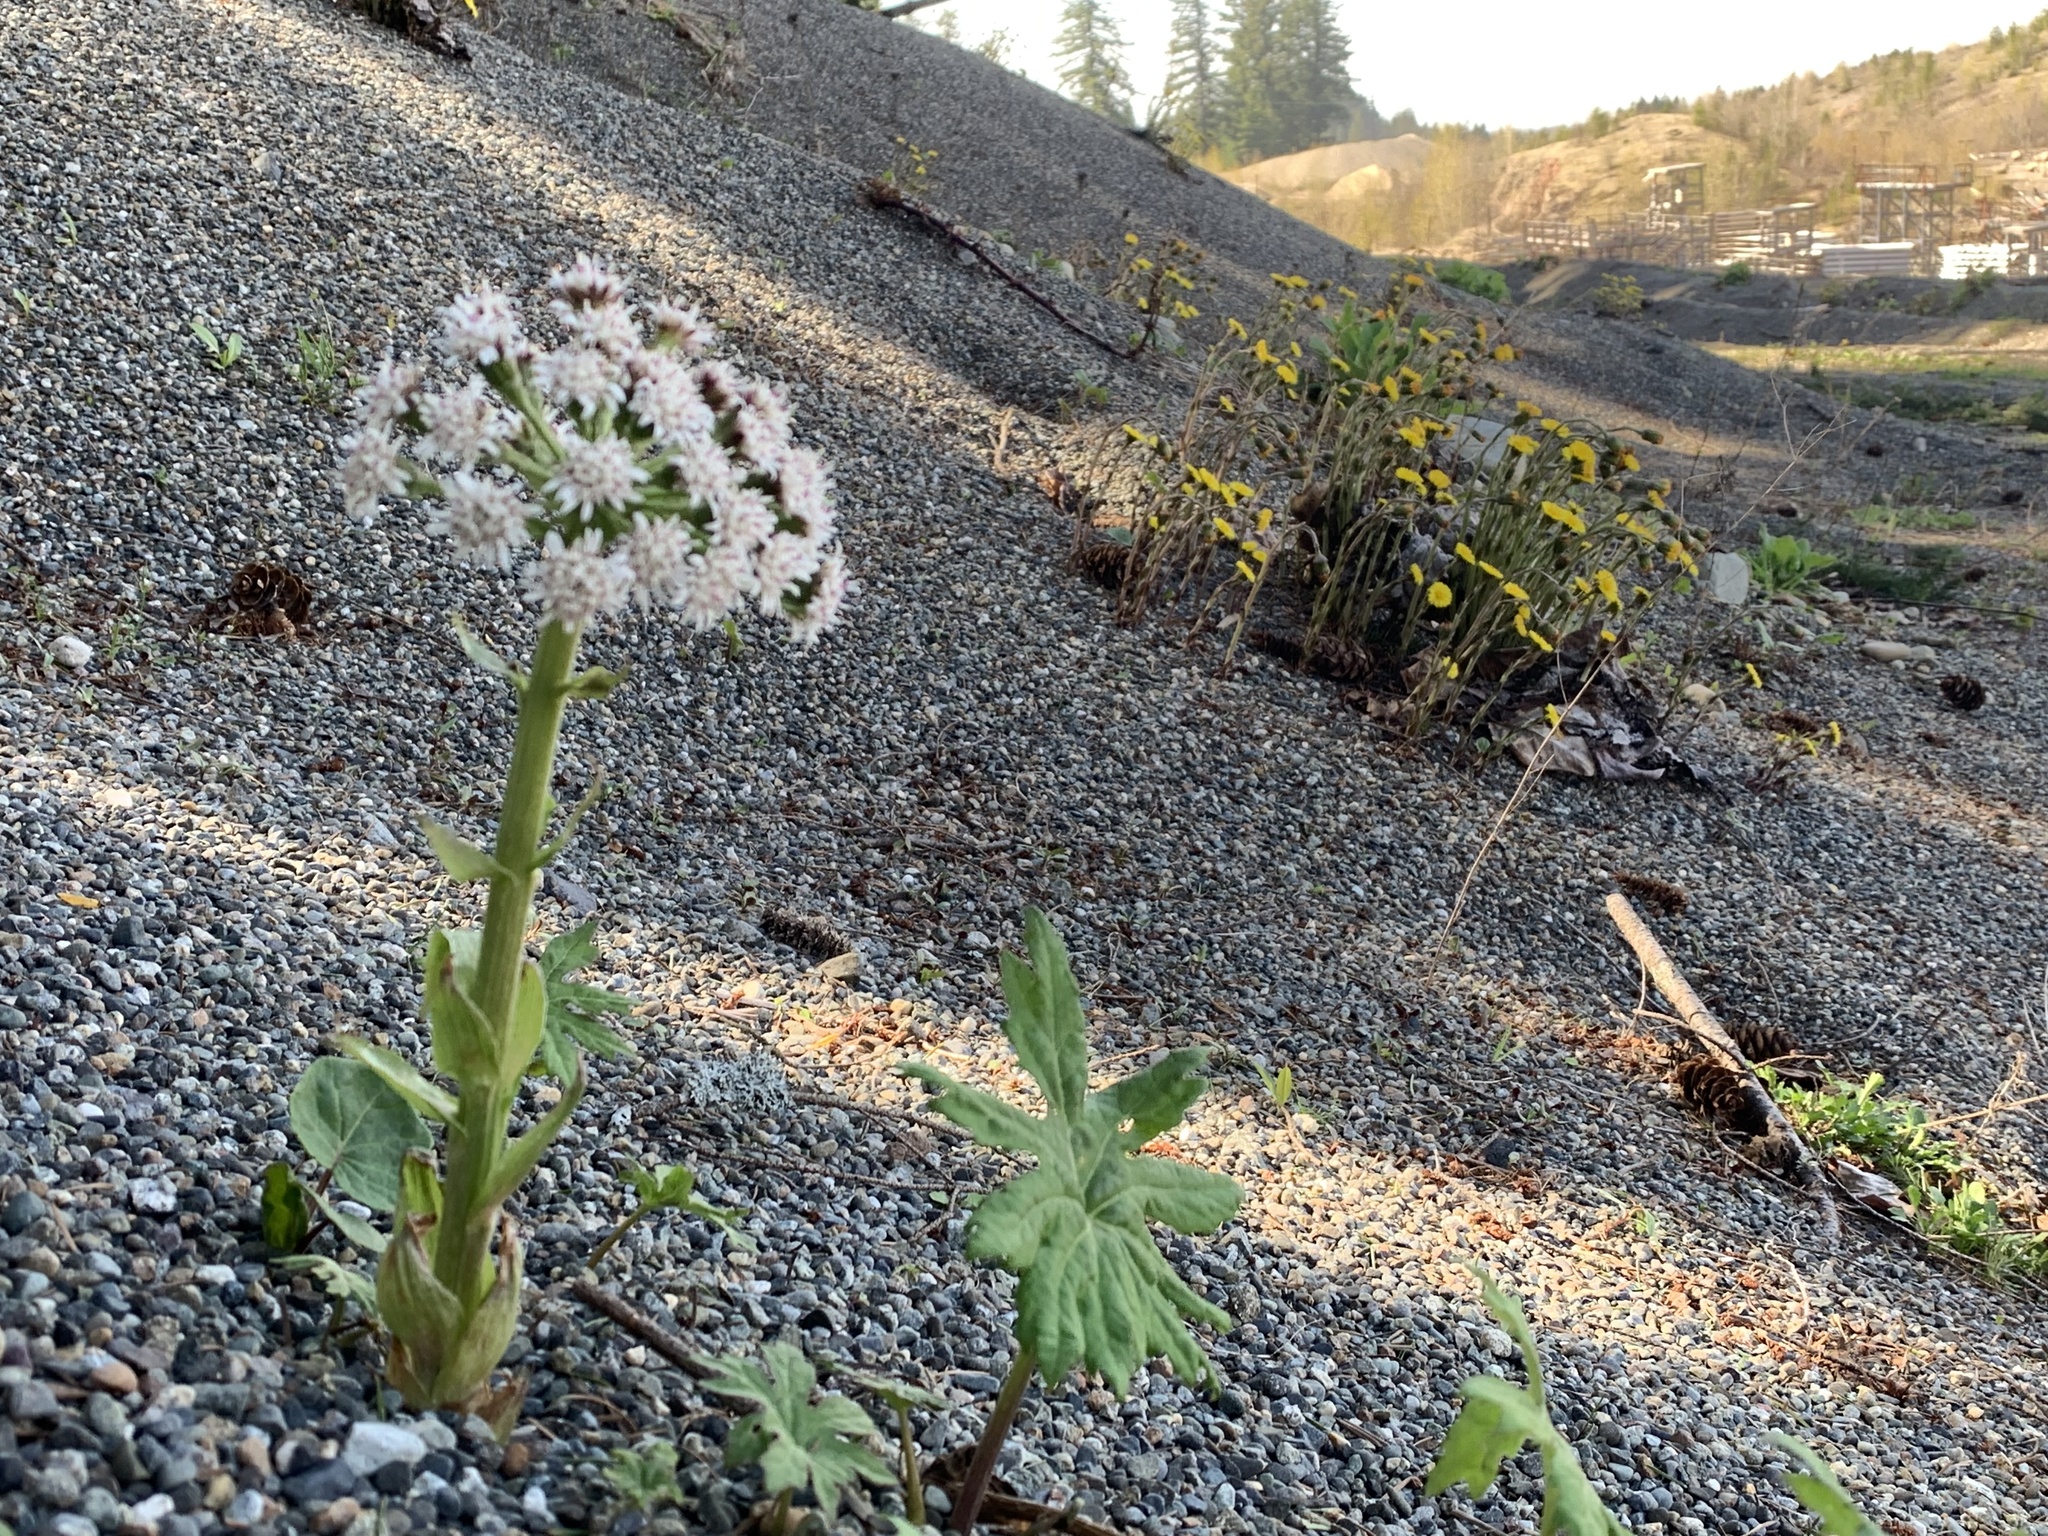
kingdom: Plantae
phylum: Tracheophyta
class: Magnoliopsida
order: Asterales
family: Asteraceae
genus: Petasites
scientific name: Petasites frigidus
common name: Arctic butterbur
